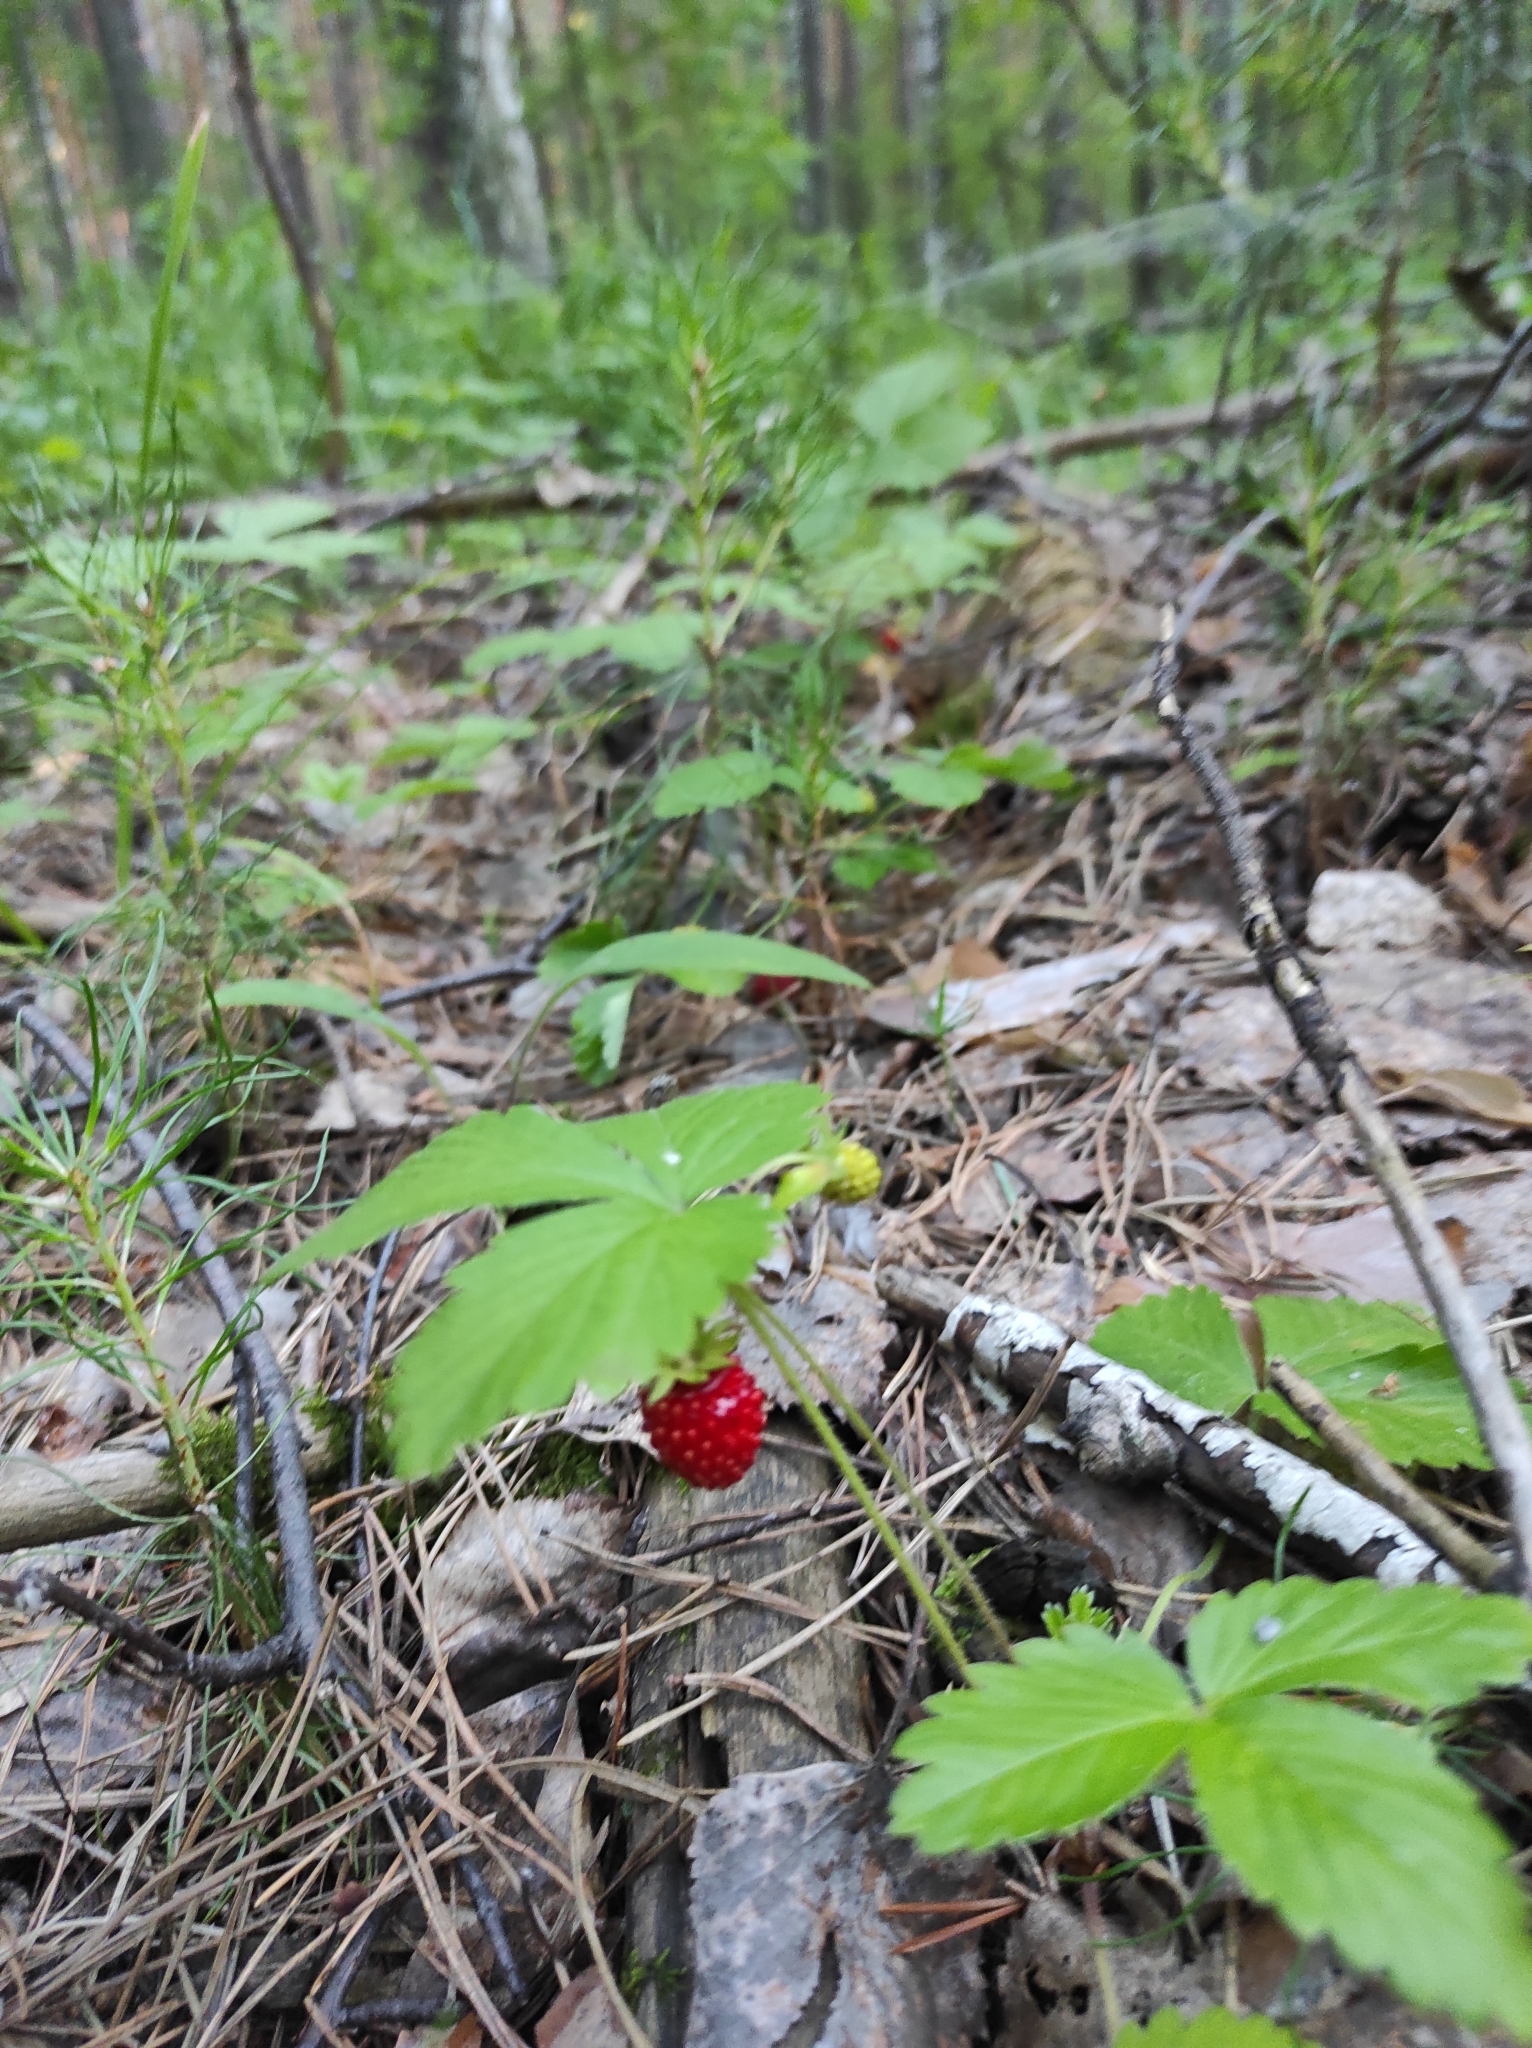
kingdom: Plantae
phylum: Tracheophyta
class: Magnoliopsida
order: Rosales
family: Rosaceae
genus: Fragaria
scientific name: Fragaria vesca
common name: Wild strawberry
